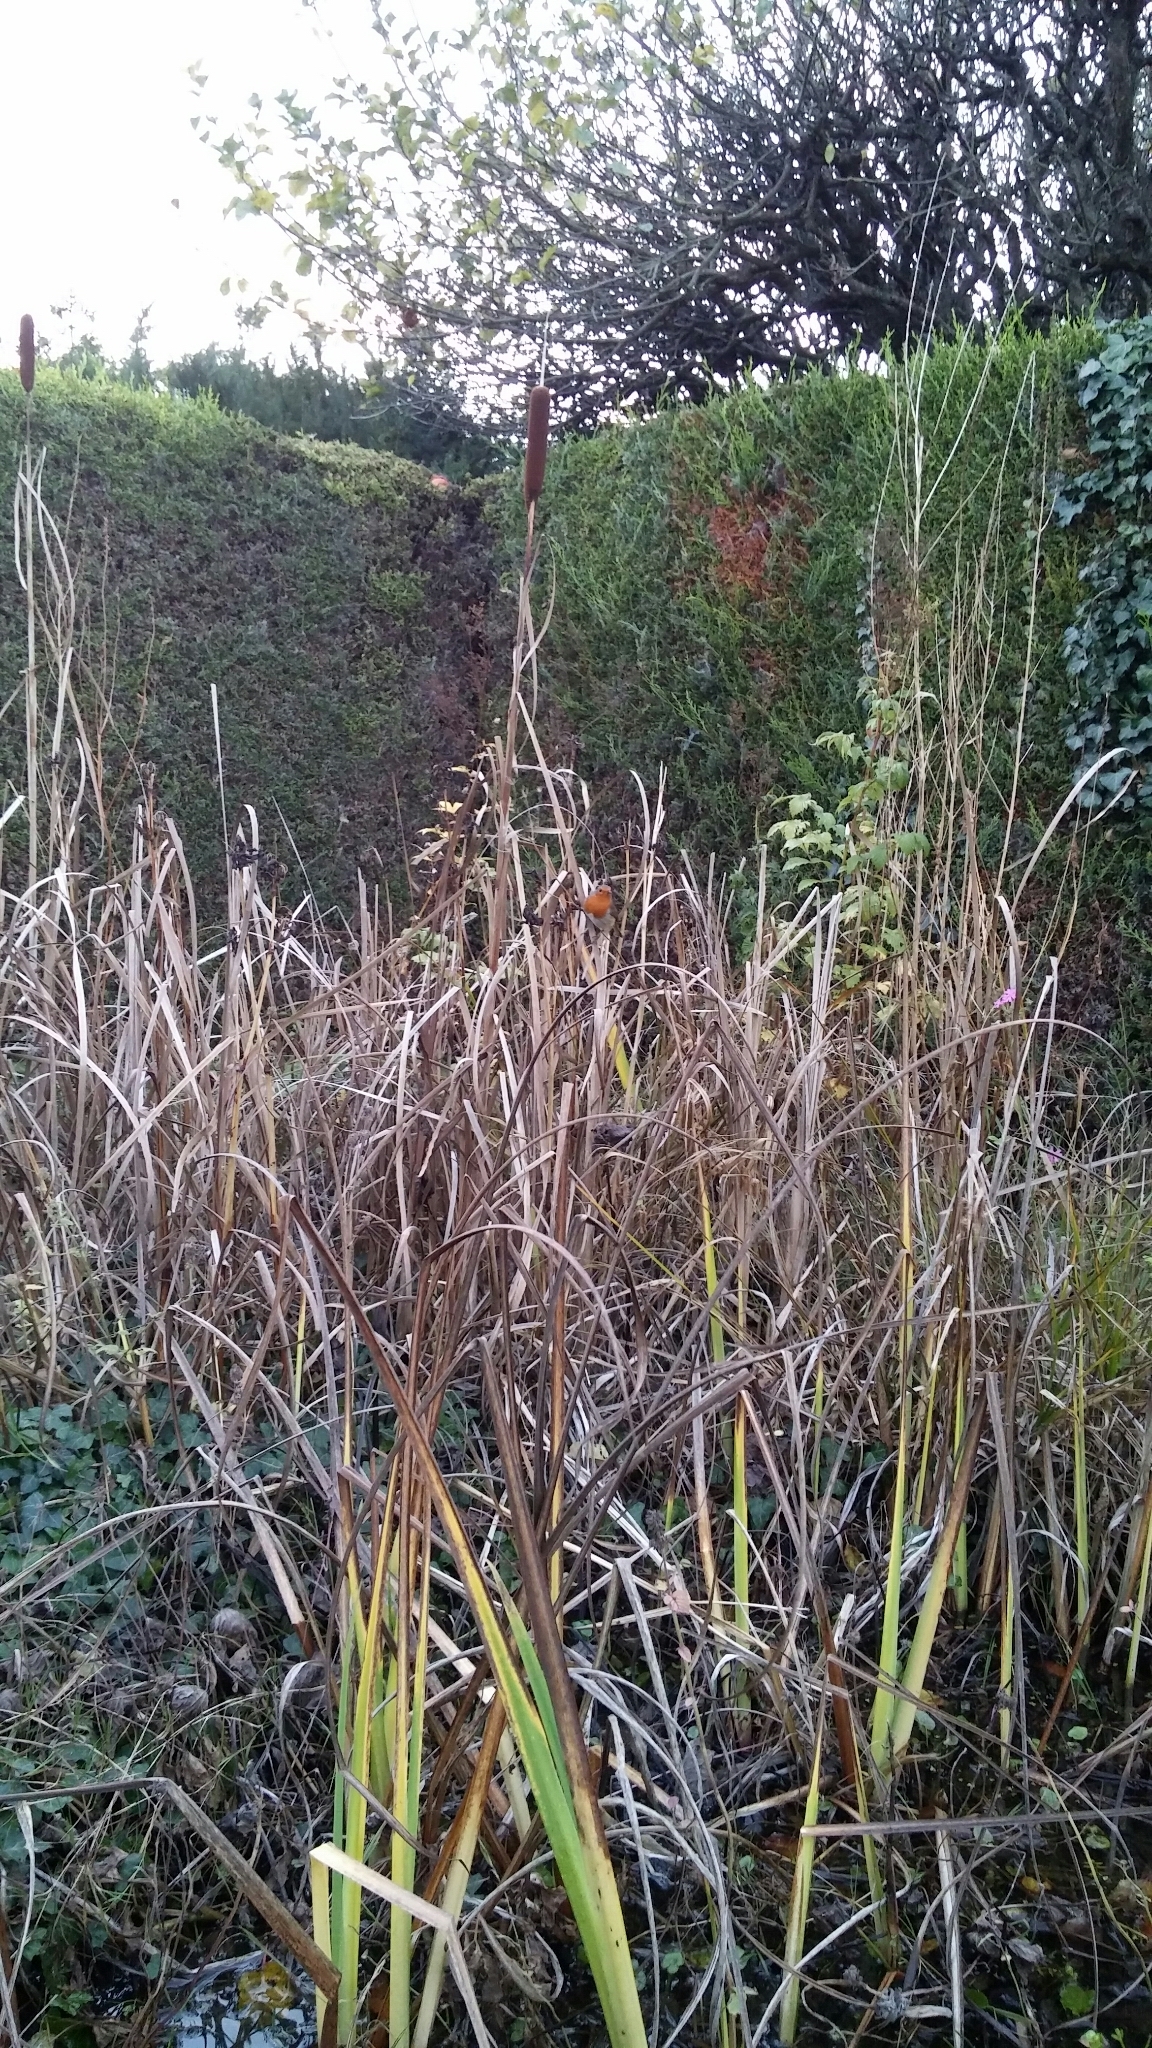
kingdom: Animalia
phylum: Chordata
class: Aves
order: Passeriformes
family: Muscicapidae
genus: Erithacus
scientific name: Erithacus rubecula
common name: European robin
